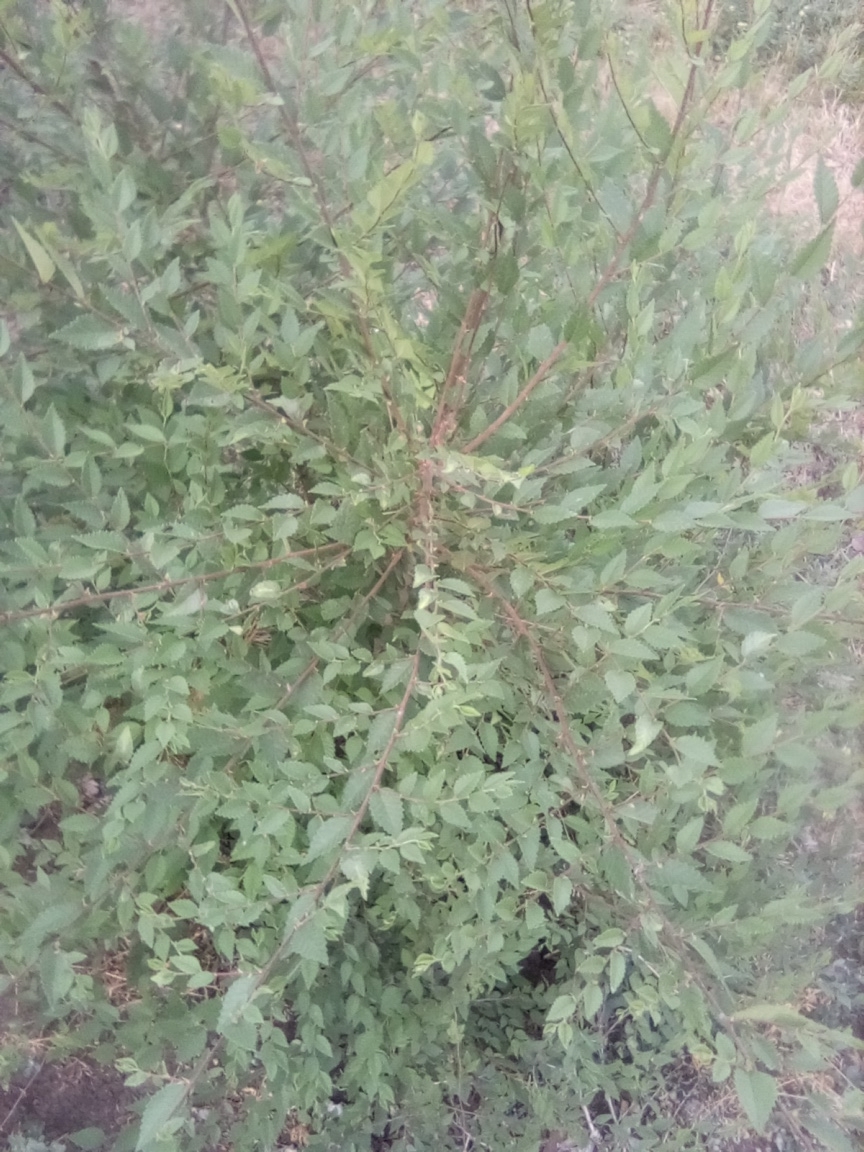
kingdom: Plantae
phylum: Tracheophyta
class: Magnoliopsida
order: Rosales
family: Ulmaceae
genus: Ulmus
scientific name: Ulmus pumila
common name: Siberian elm
